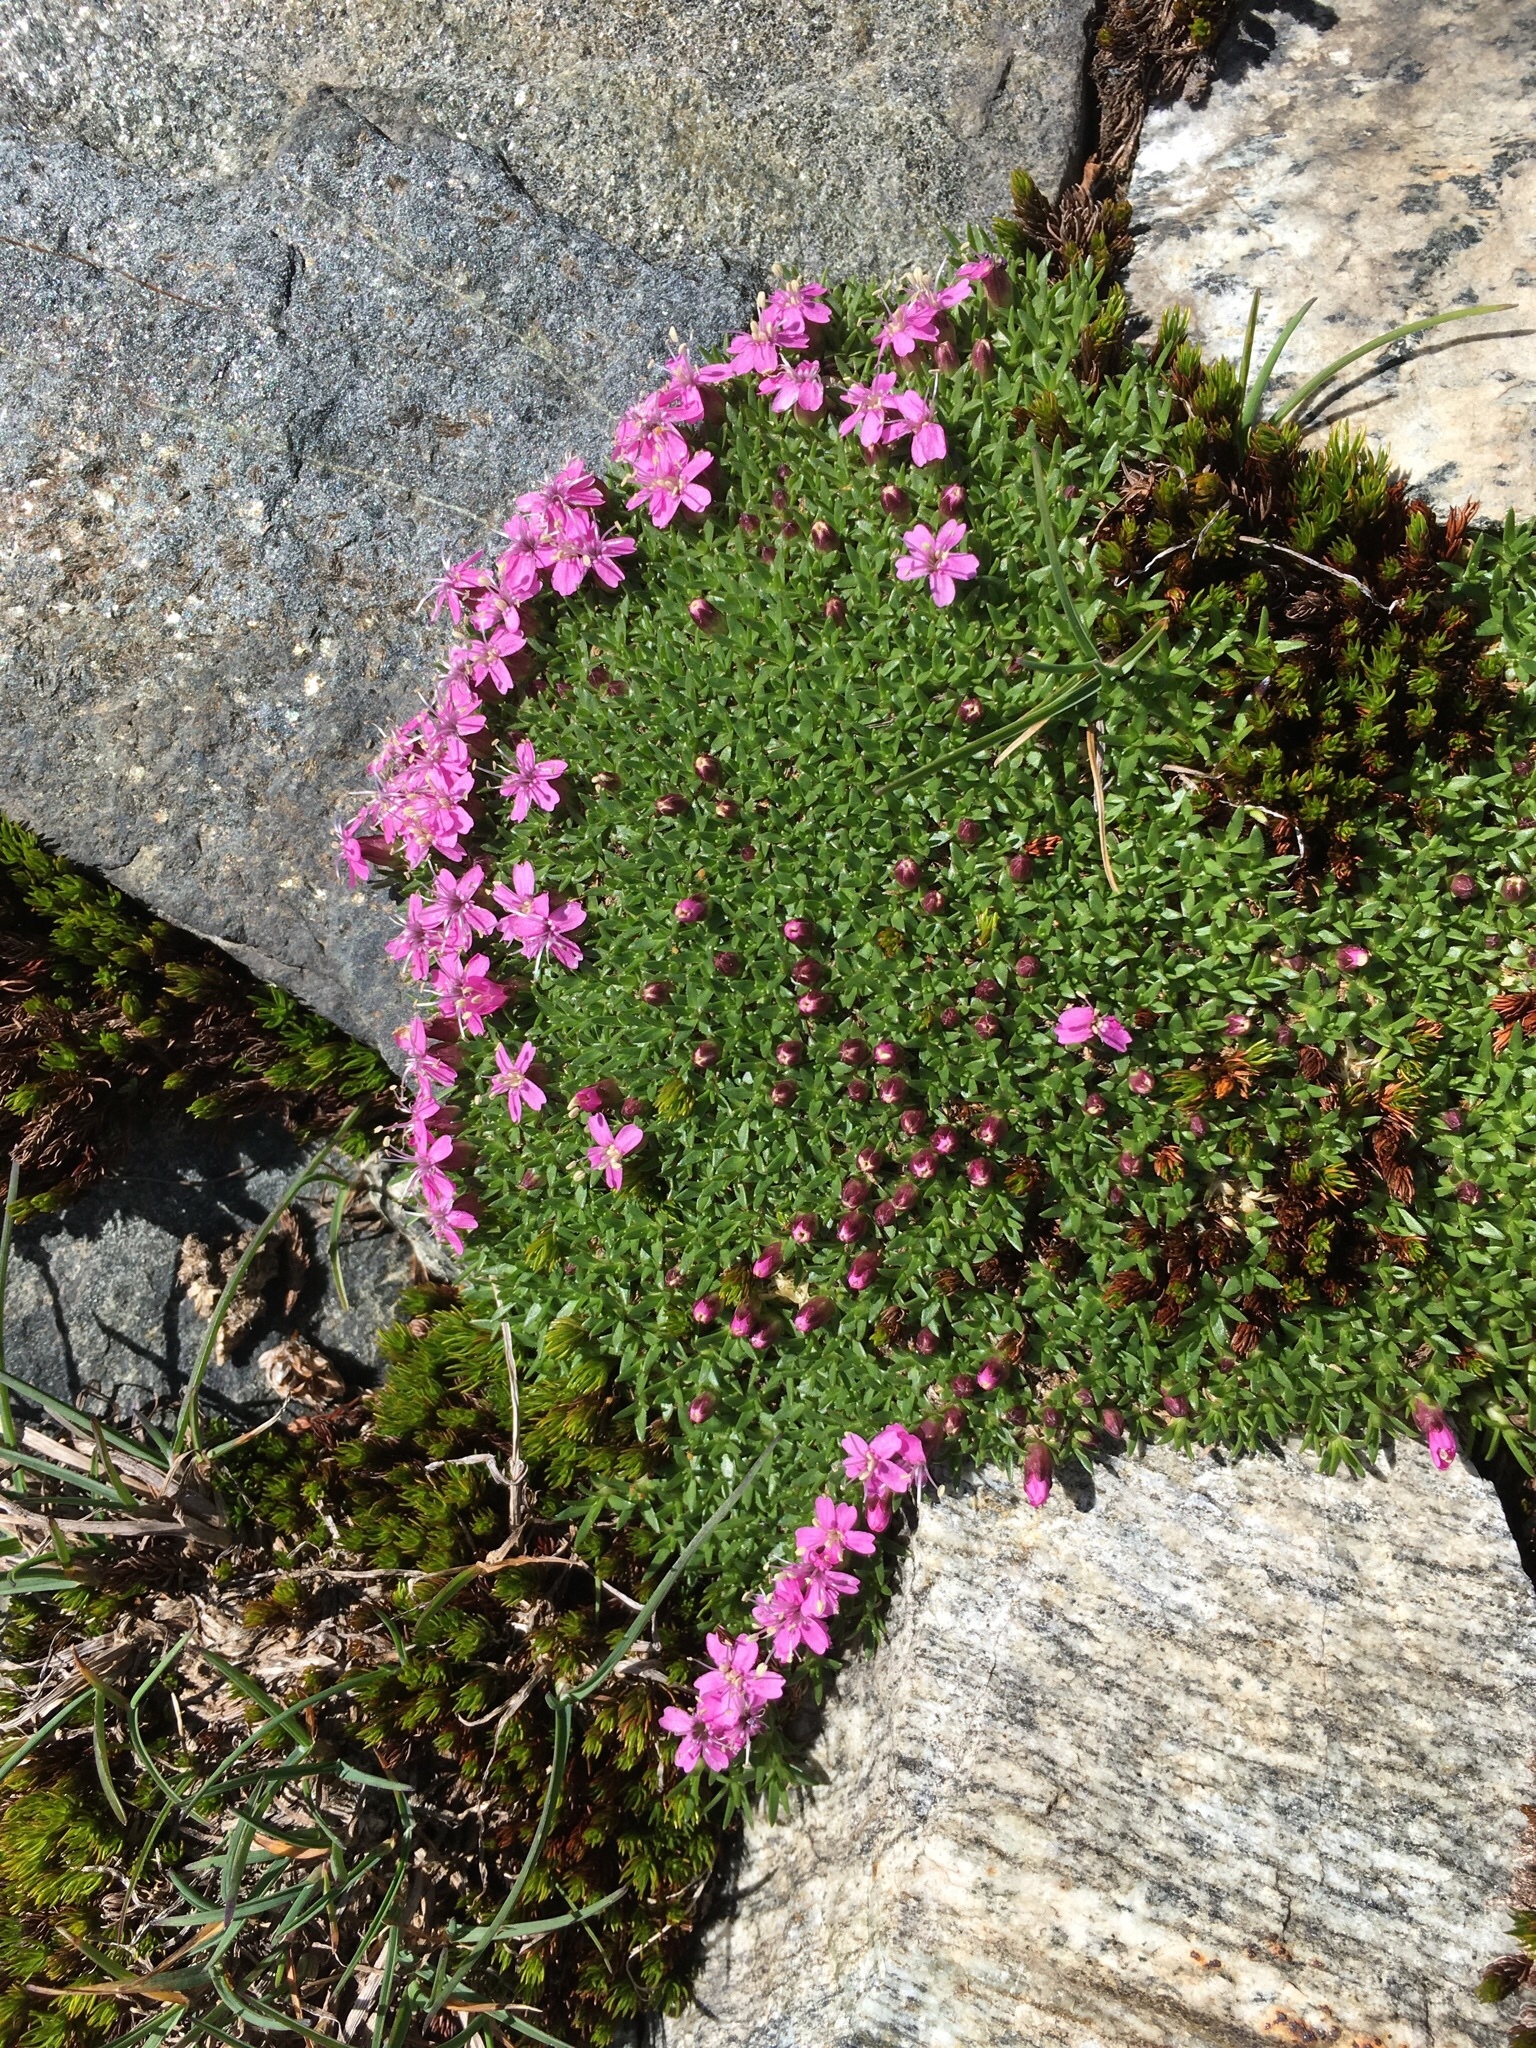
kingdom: Plantae
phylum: Tracheophyta
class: Magnoliopsida
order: Caryophyllales
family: Caryophyllaceae
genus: Silene
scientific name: Silene acaulis
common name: Moss campion
